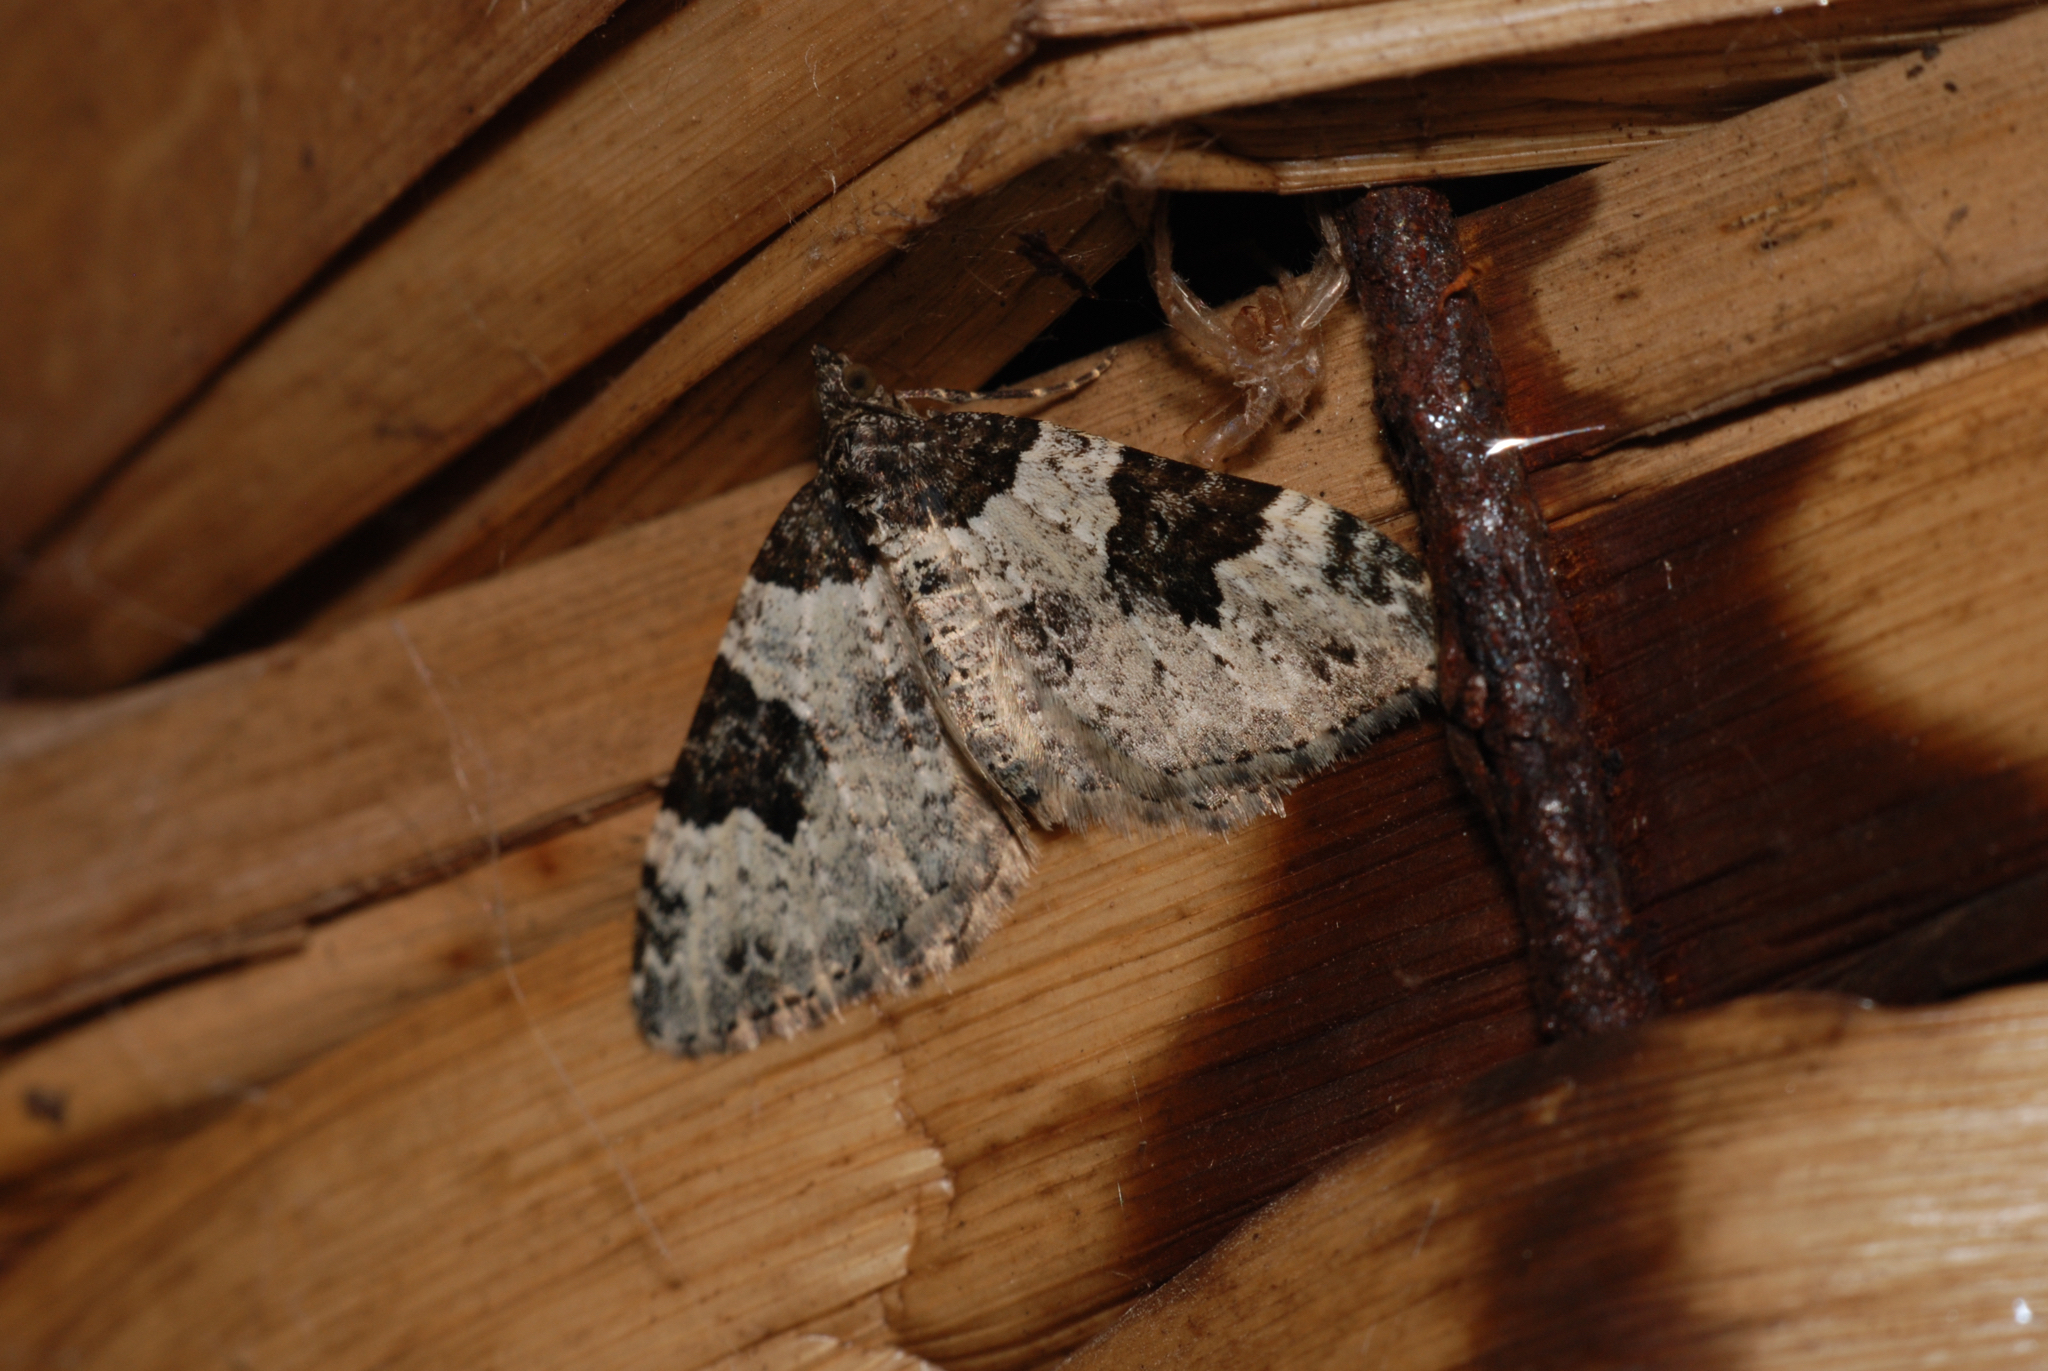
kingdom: Animalia
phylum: Arthropoda
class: Insecta
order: Lepidoptera
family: Geometridae
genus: Xanthorhoe
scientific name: Xanthorhoe fluctuata
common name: Garden carpet
